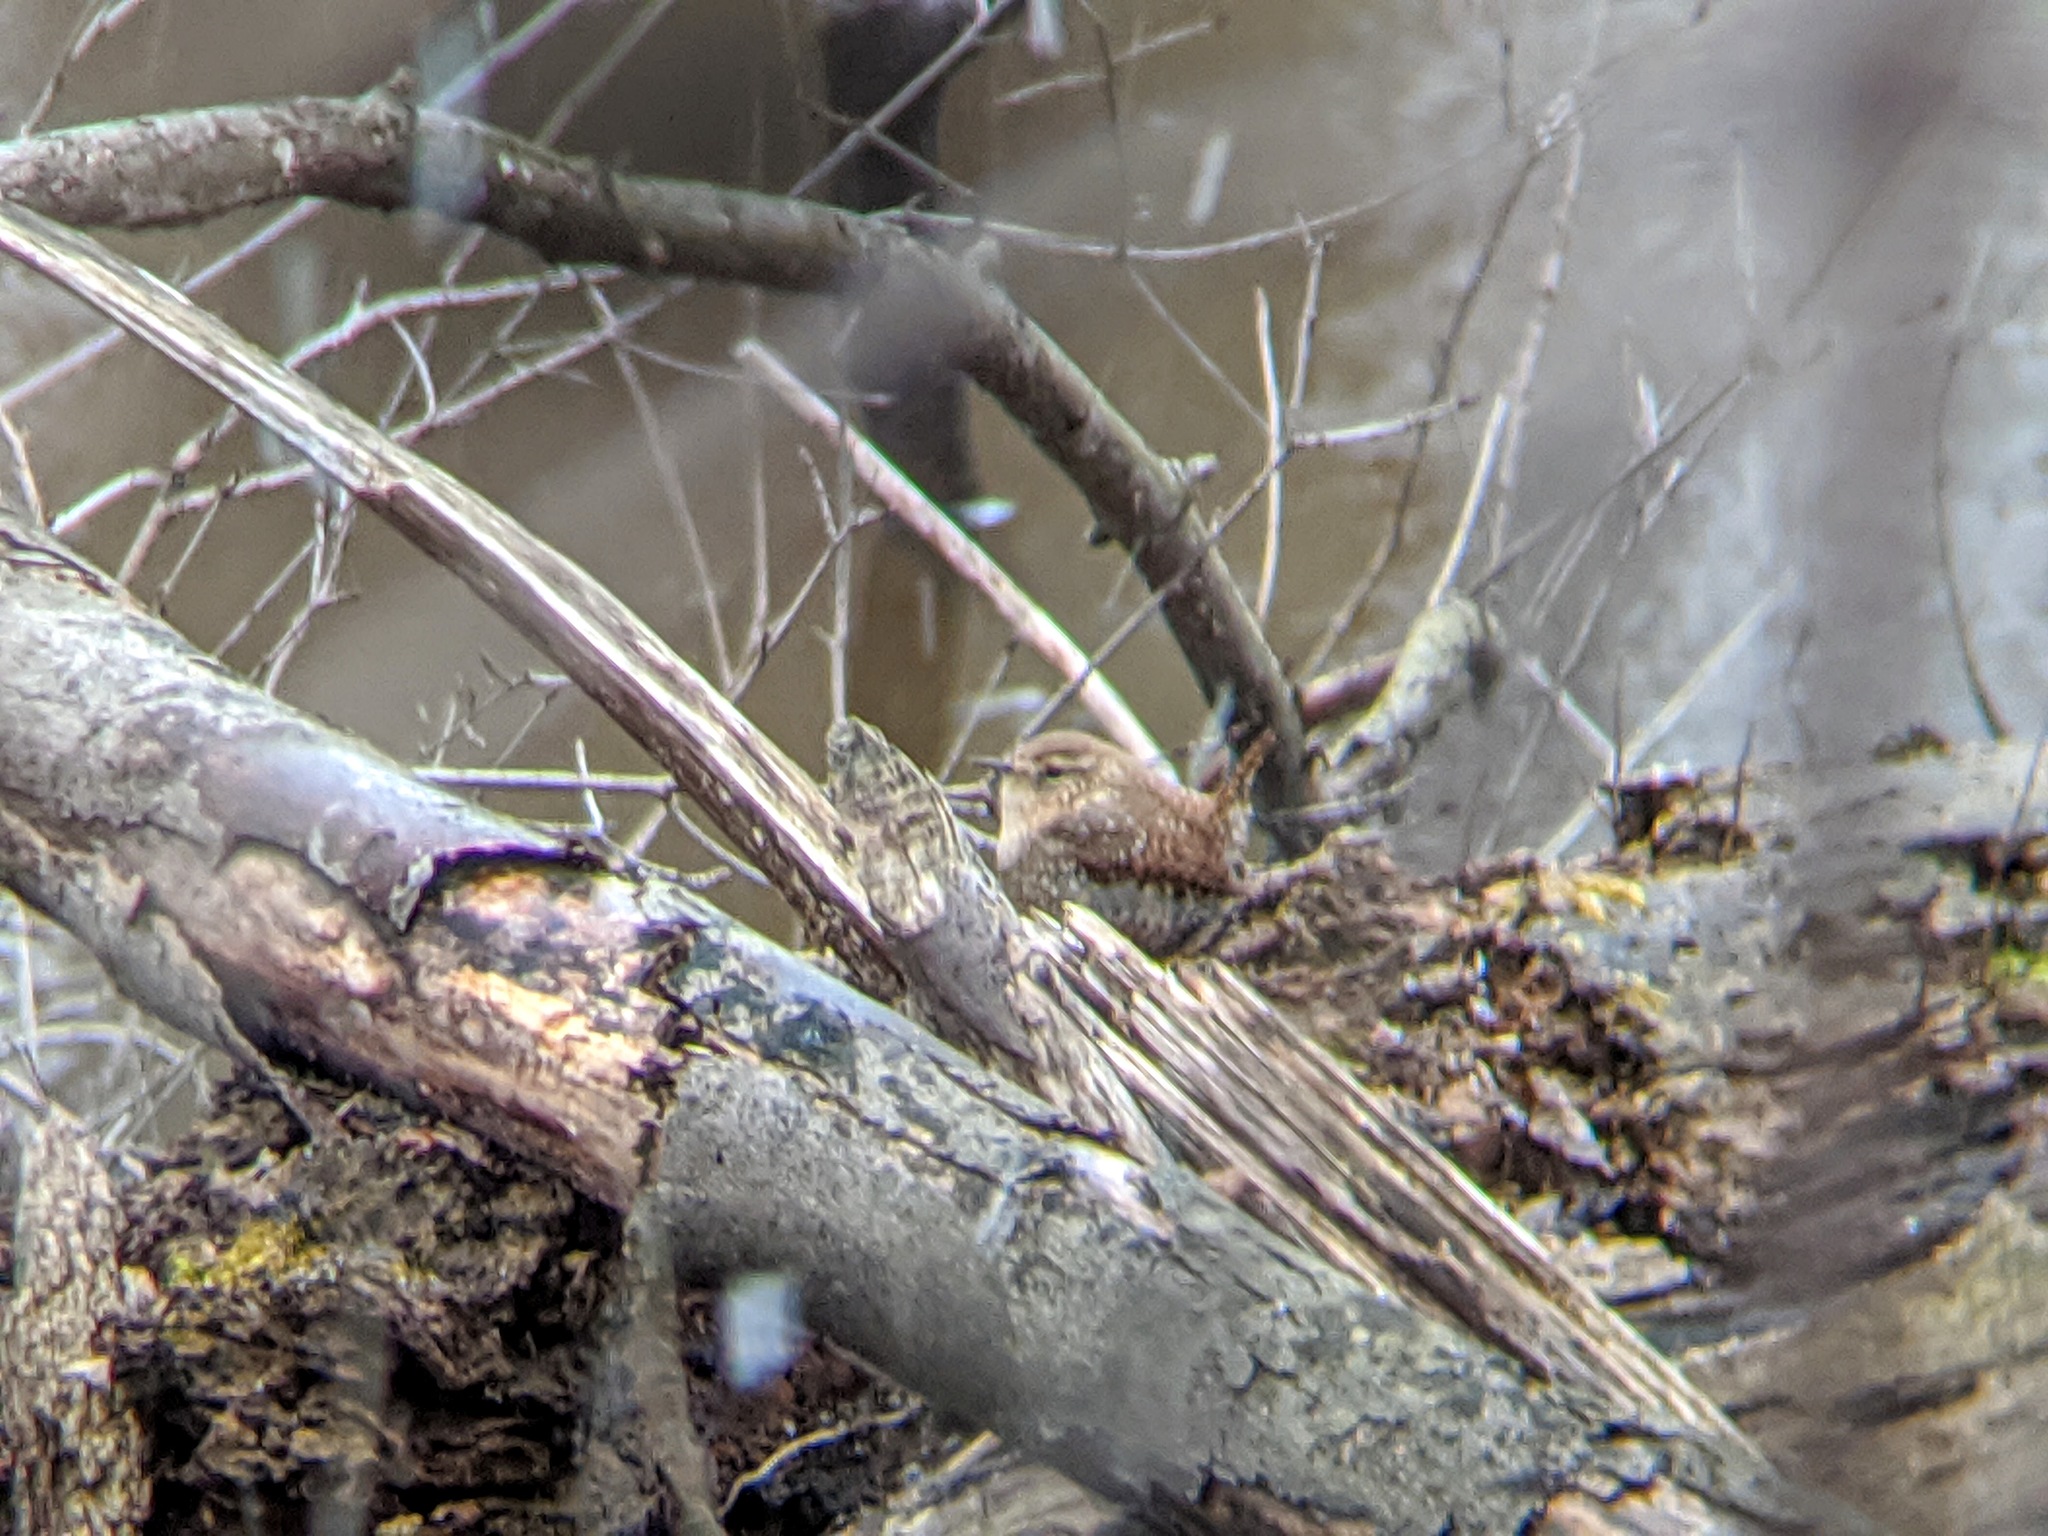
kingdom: Animalia
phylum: Chordata
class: Aves
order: Passeriformes
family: Troglodytidae
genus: Troglodytes
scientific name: Troglodytes hiemalis
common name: Winter wren
